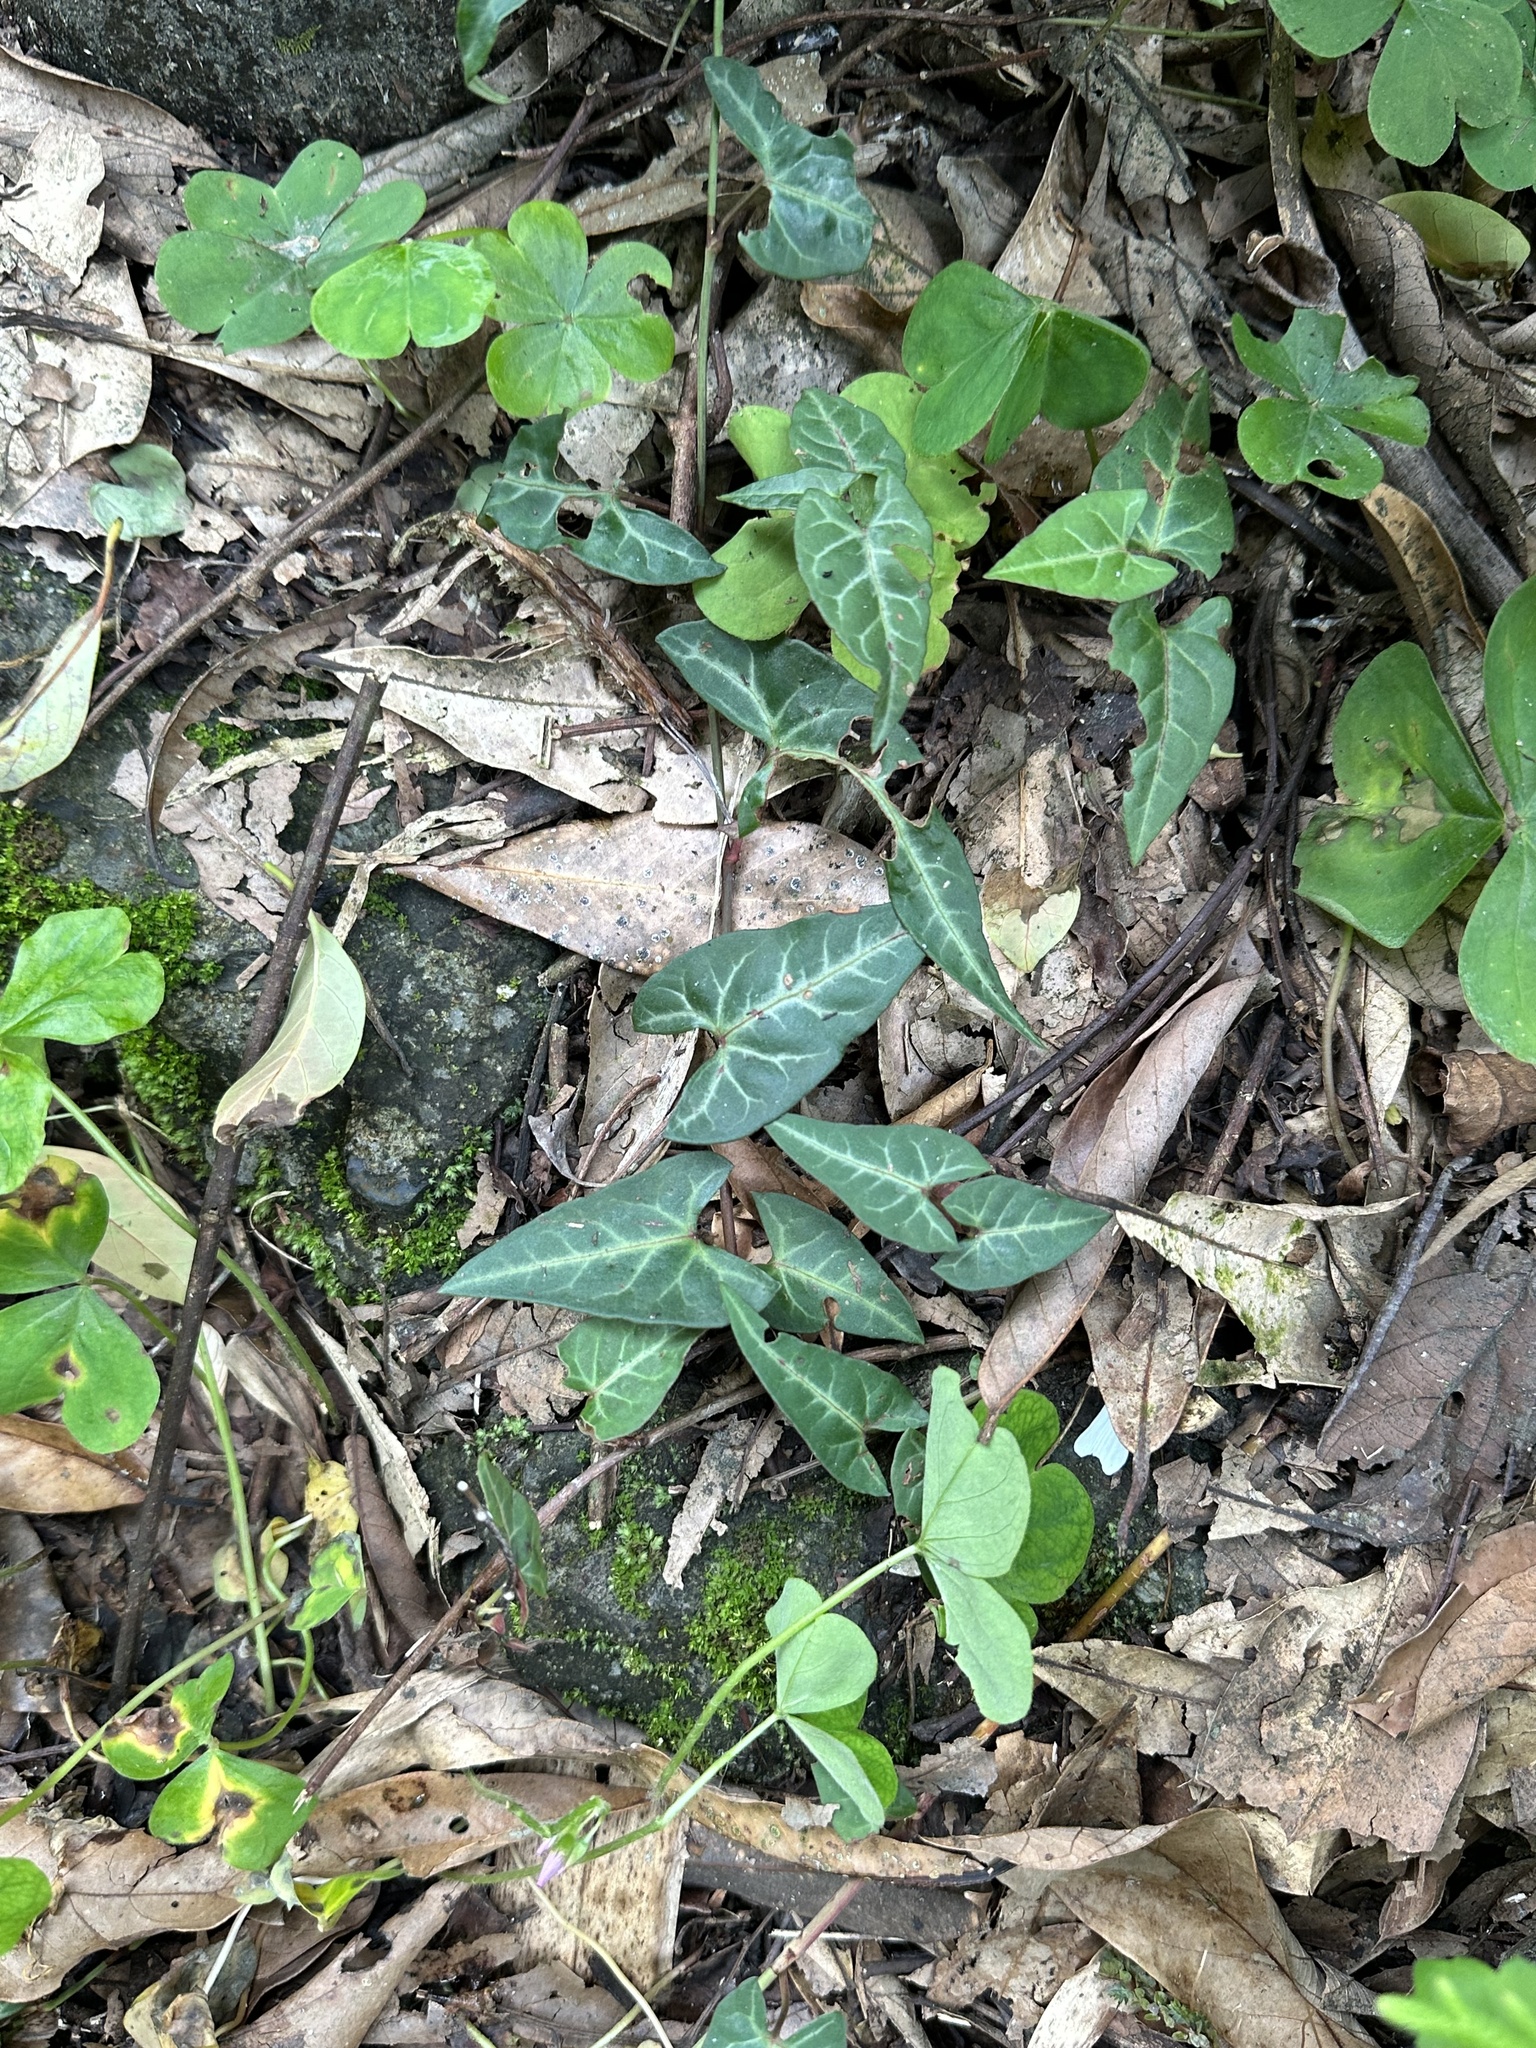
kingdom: Plantae
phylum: Tracheophyta
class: Magnoliopsida
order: Caryophyllales
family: Polygonaceae
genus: Reynoutria
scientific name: Reynoutria multiflora
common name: Chinese fleeceflower
